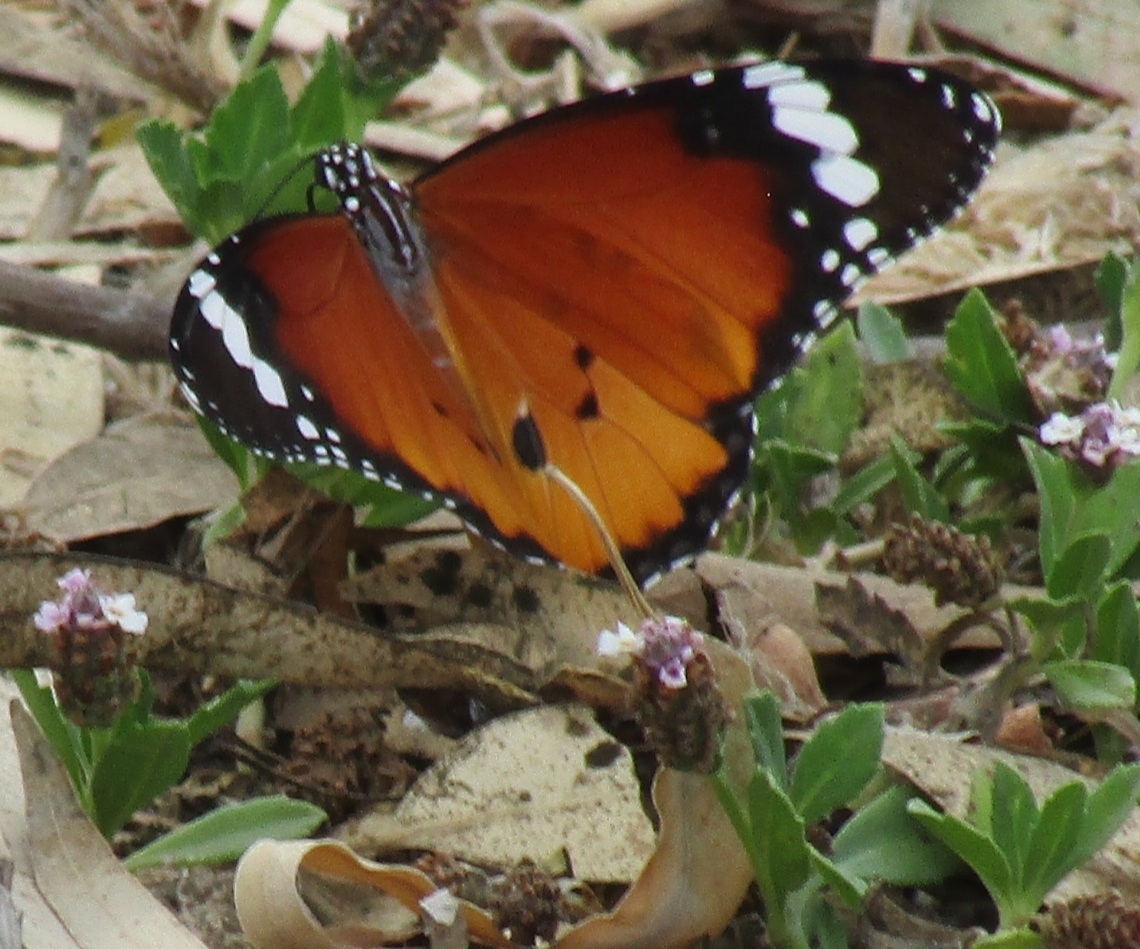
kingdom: Animalia
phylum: Arthropoda
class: Insecta
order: Lepidoptera
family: Nymphalidae
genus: Danaus
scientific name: Danaus chrysippus
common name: Plain tiger
